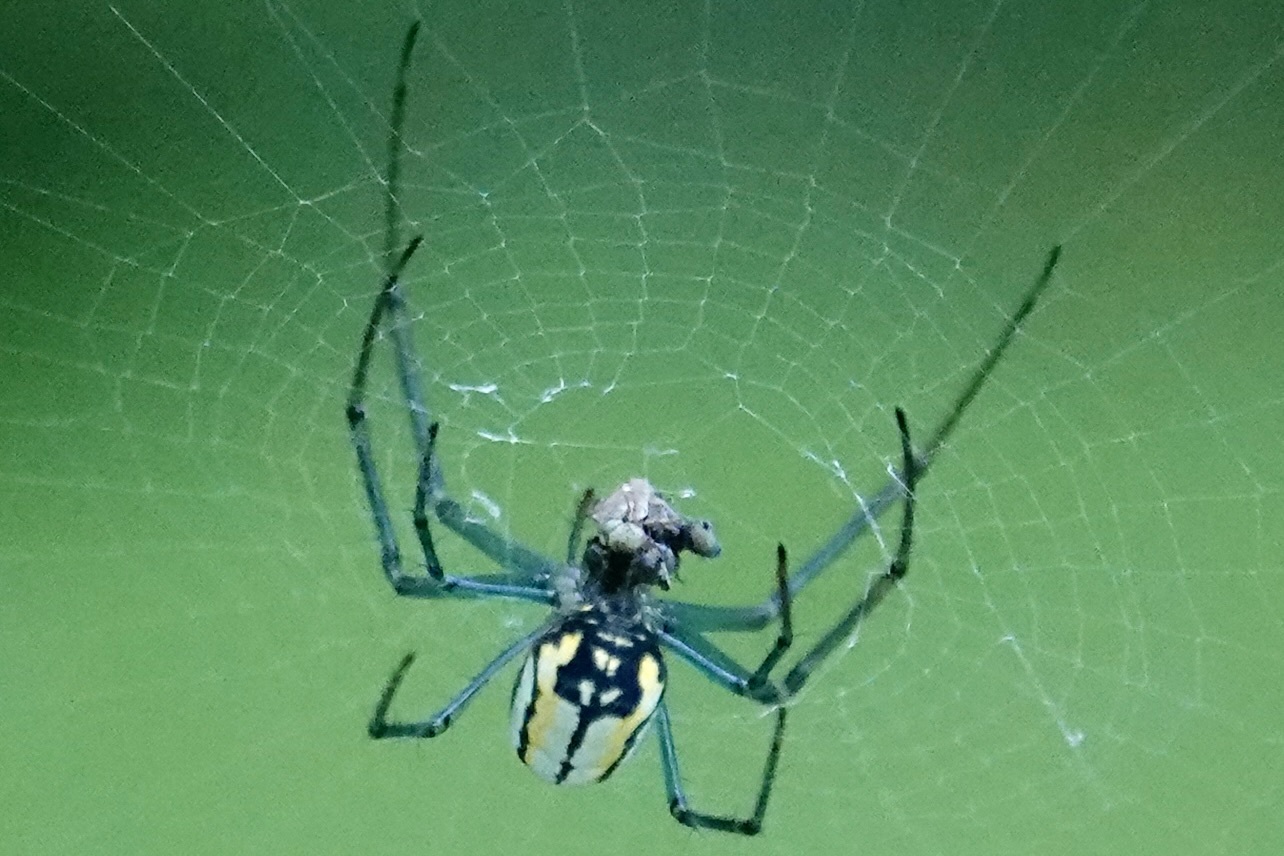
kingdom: Animalia
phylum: Arthropoda
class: Arachnida
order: Araneae
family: Tetragnathidae
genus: Leucauge
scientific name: Leucauge venusta
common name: Longjawed orb weavers
